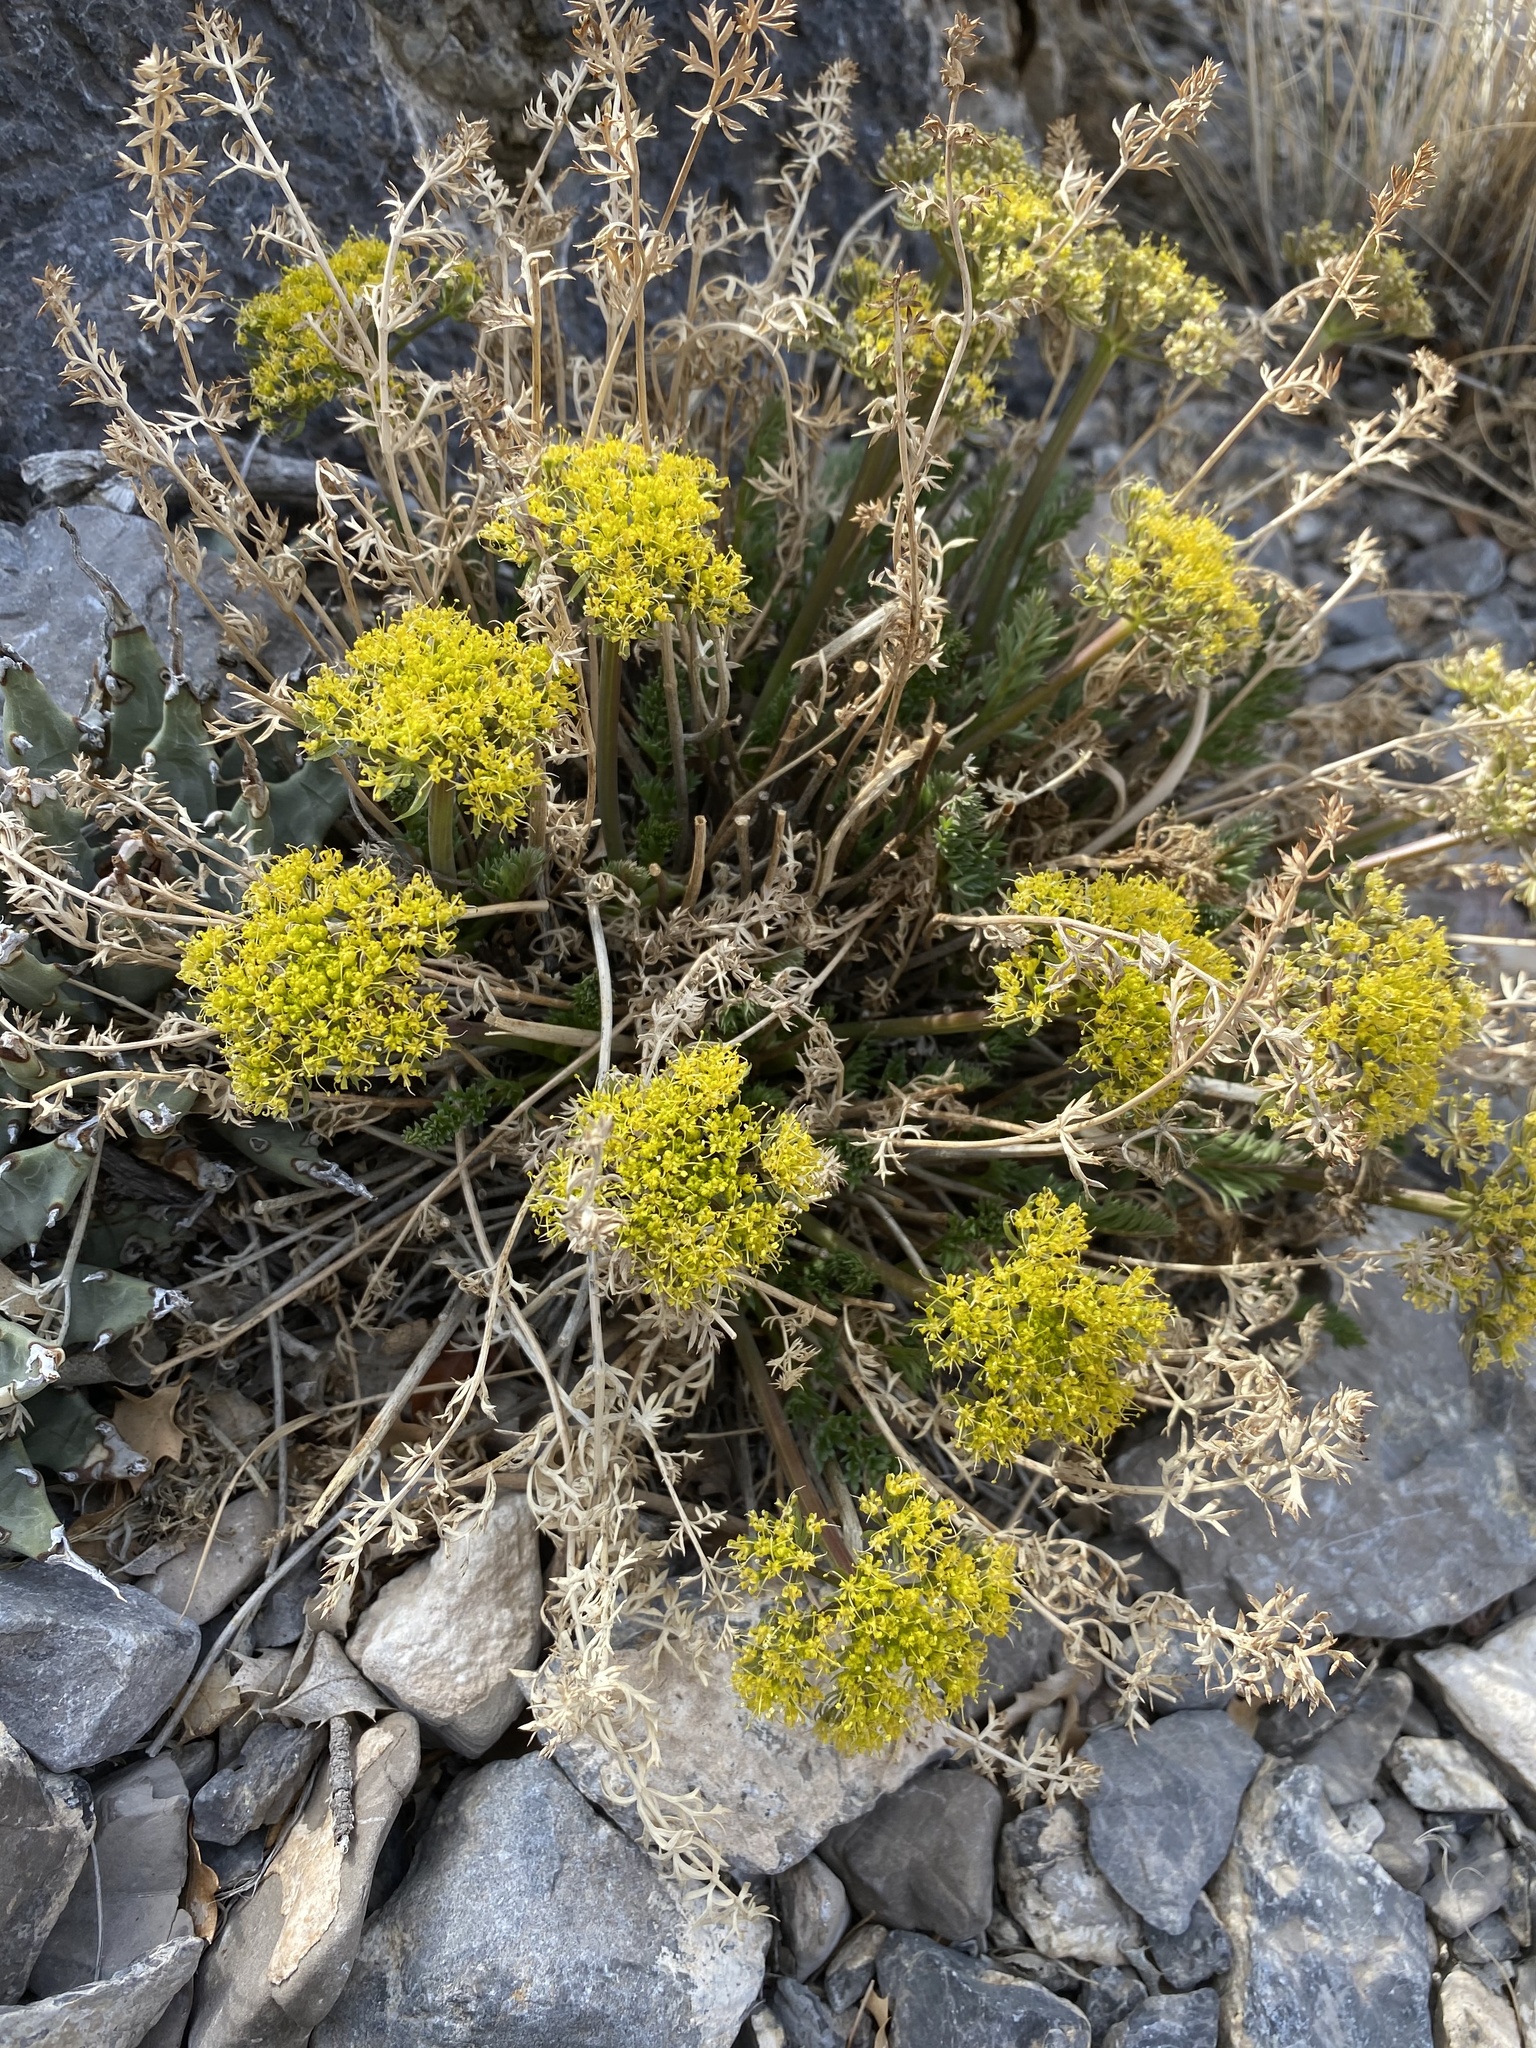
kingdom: Plantae
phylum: Tracheophyta
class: Magnoliopsida
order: Apiales
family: Apiaceae
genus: Lomatium
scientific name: Lomatium parryi
